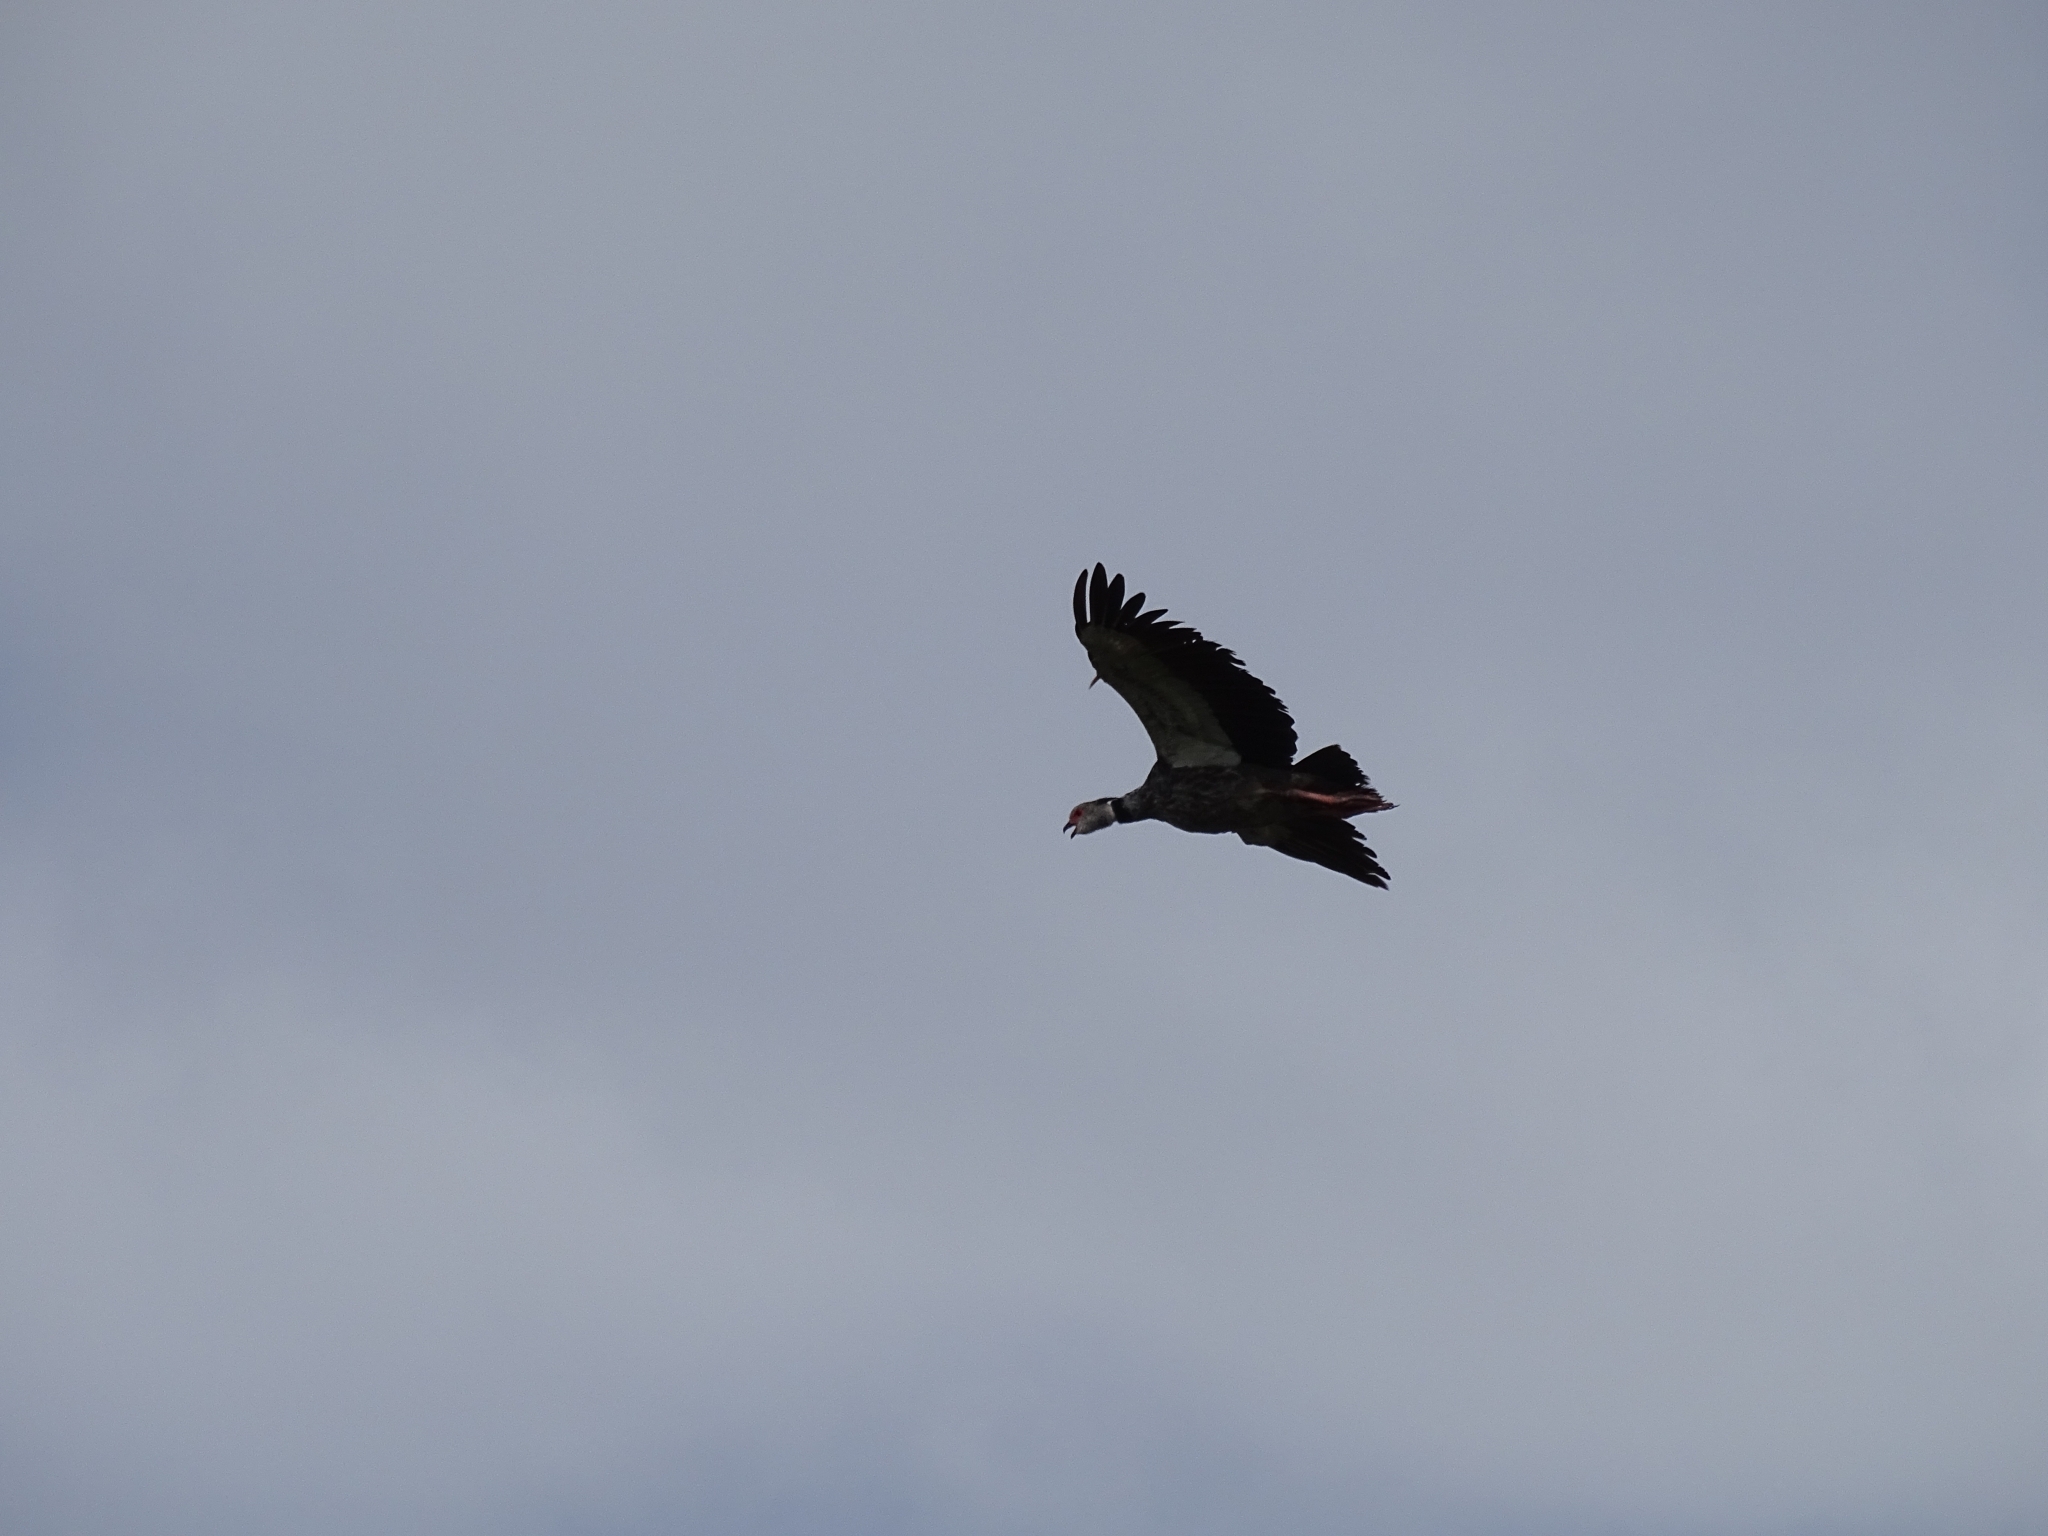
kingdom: Animalia
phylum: Chordata
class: Aves
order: Anseriformes
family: Anhimidae
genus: Chauna
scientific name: Chauna torquata
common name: Southern screamer
